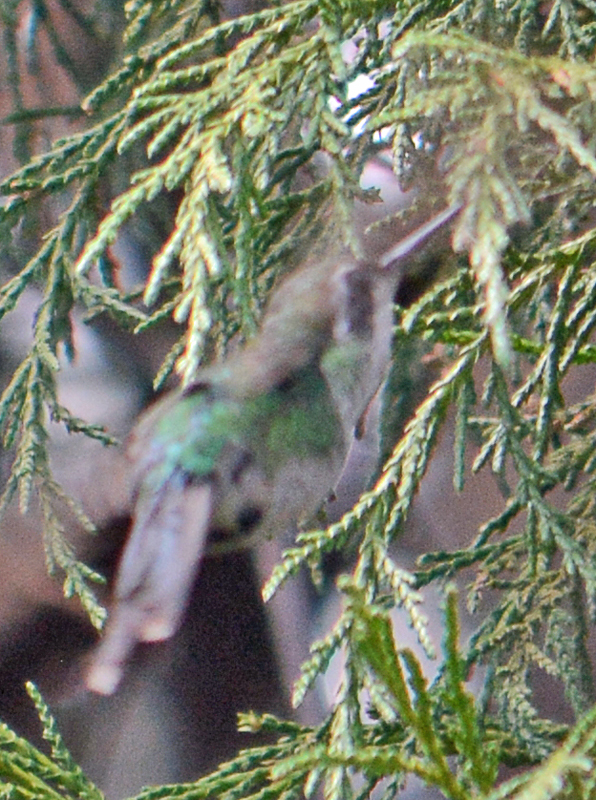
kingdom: Animalia
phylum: Chordata
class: Aves
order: Apodiformes
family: Trochilidae
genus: Cynanthus
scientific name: Cynanthus latirostris
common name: Broad-billed hummingbird
